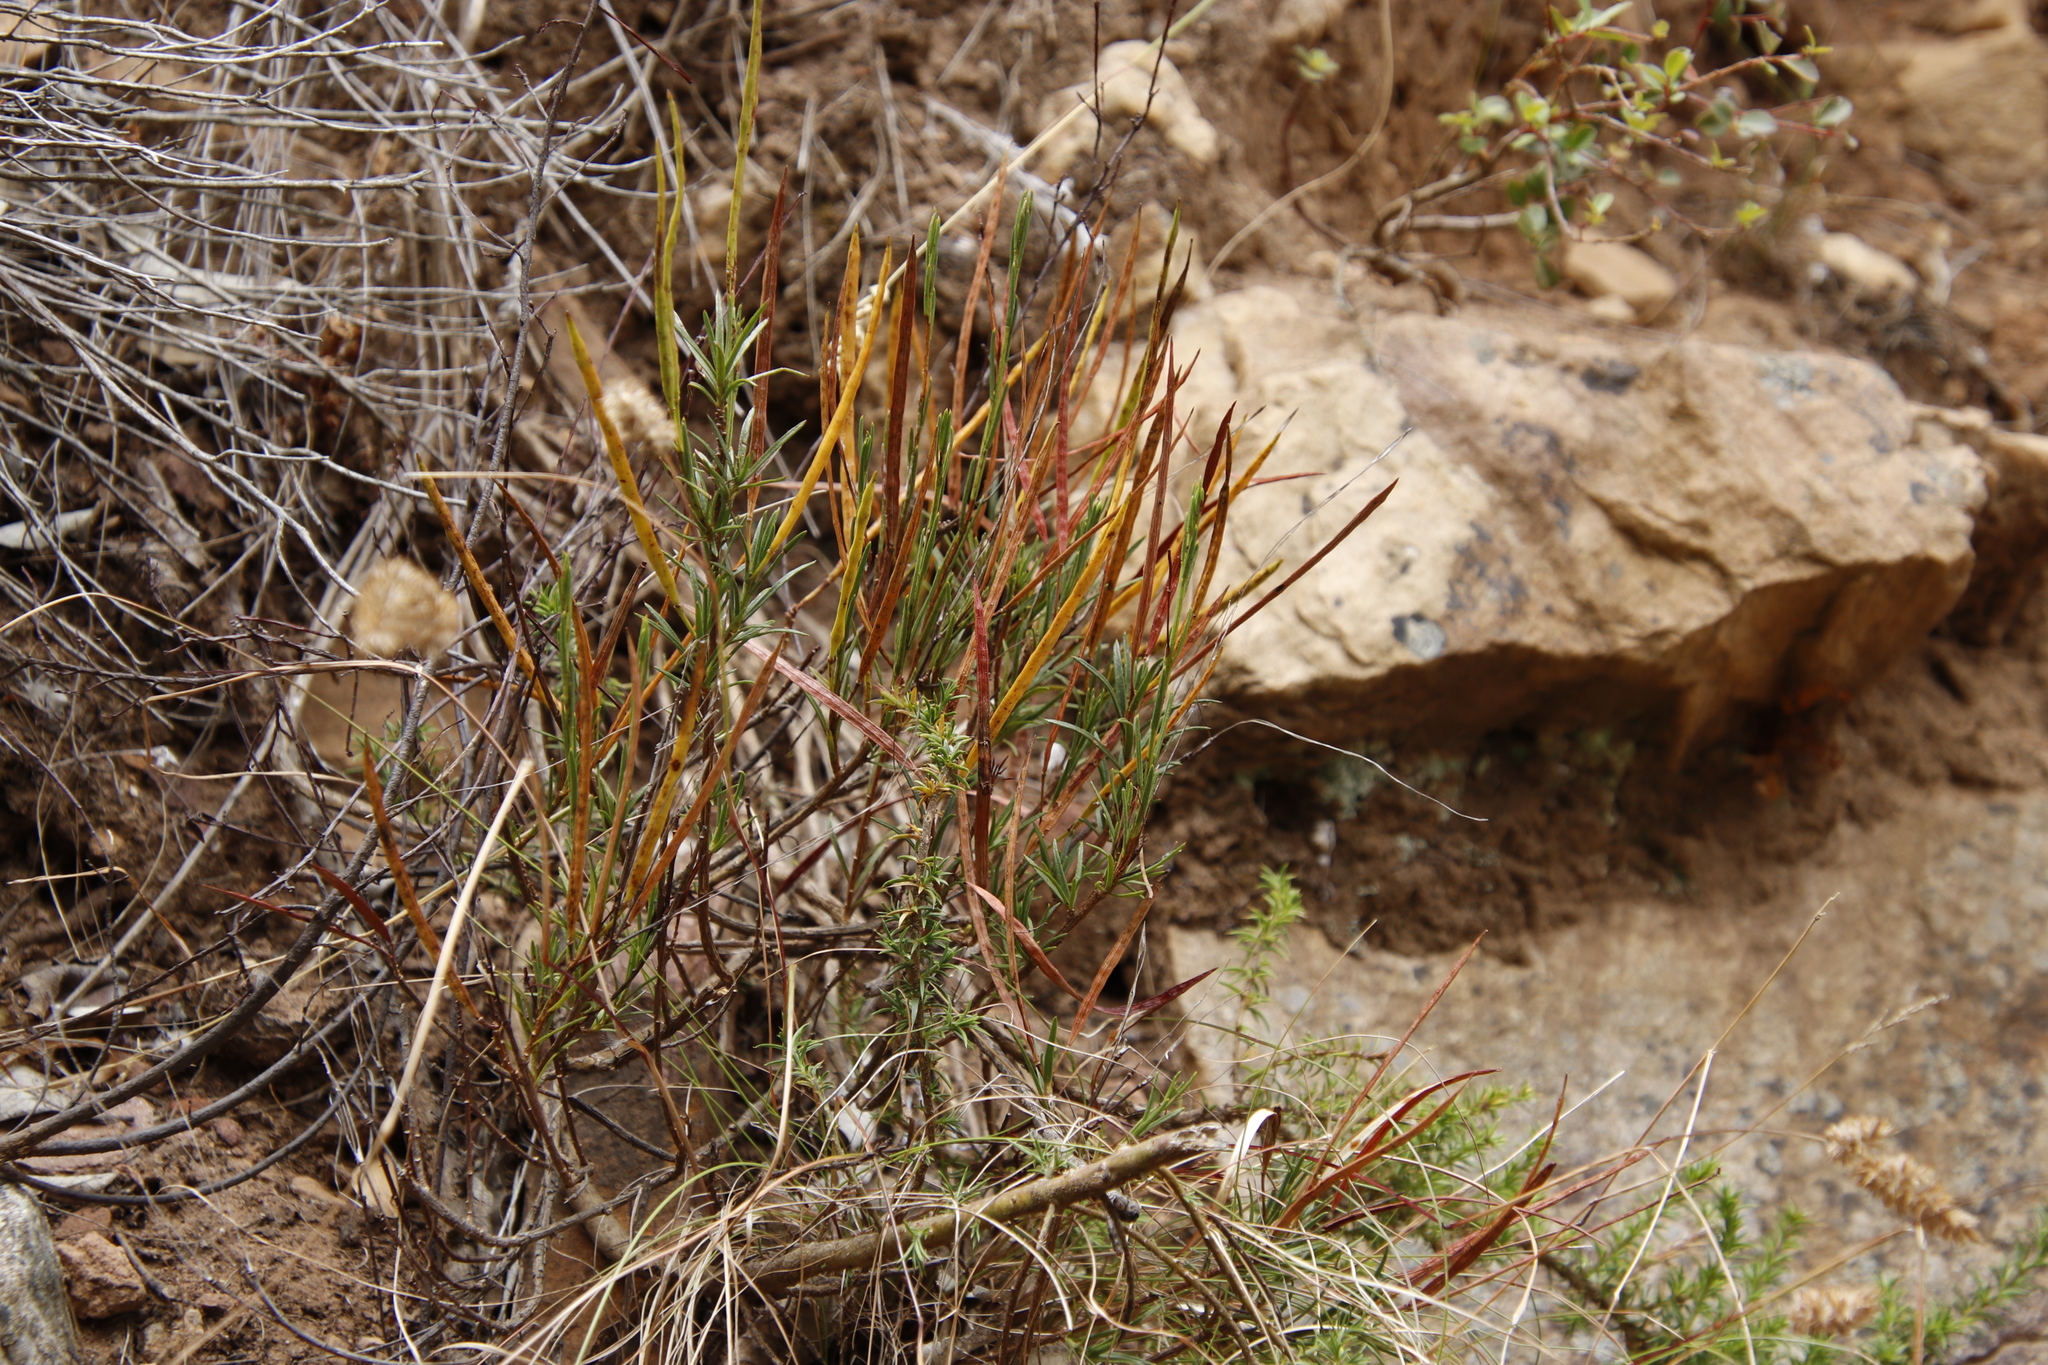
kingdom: Plantae
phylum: Tracheophyta
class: Magnoliopsida
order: Brassicales
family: Brassicaceae
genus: Heliophila
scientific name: Heliophila scoparia
